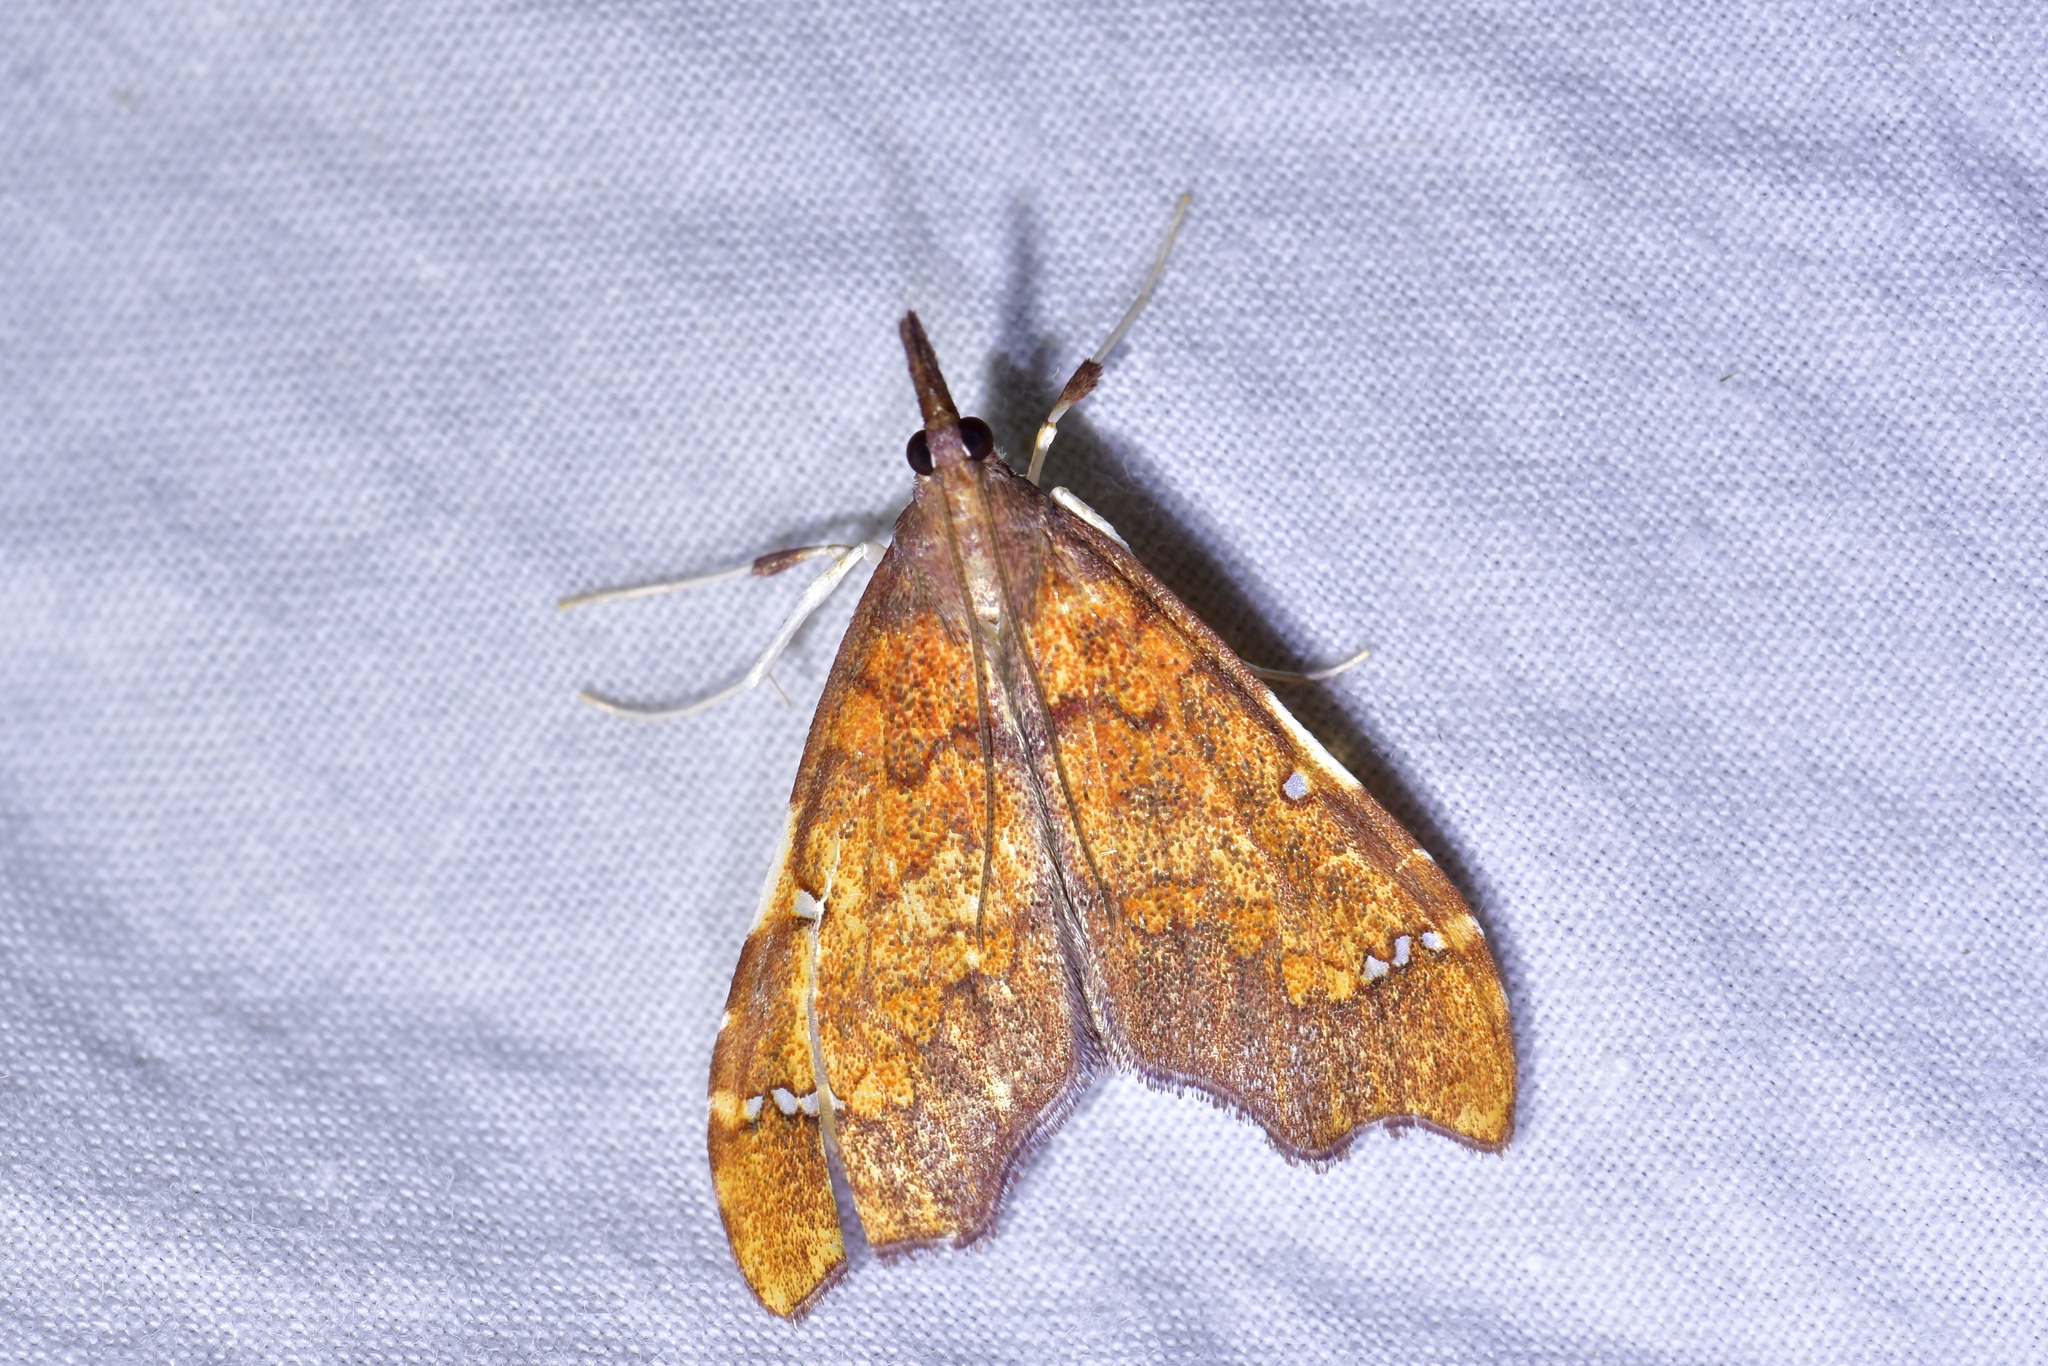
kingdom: Animalia
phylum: Arthropoda
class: Insecta
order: Lepidoptera
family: Crambidae
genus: Deana
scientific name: Deana hybreasalis
